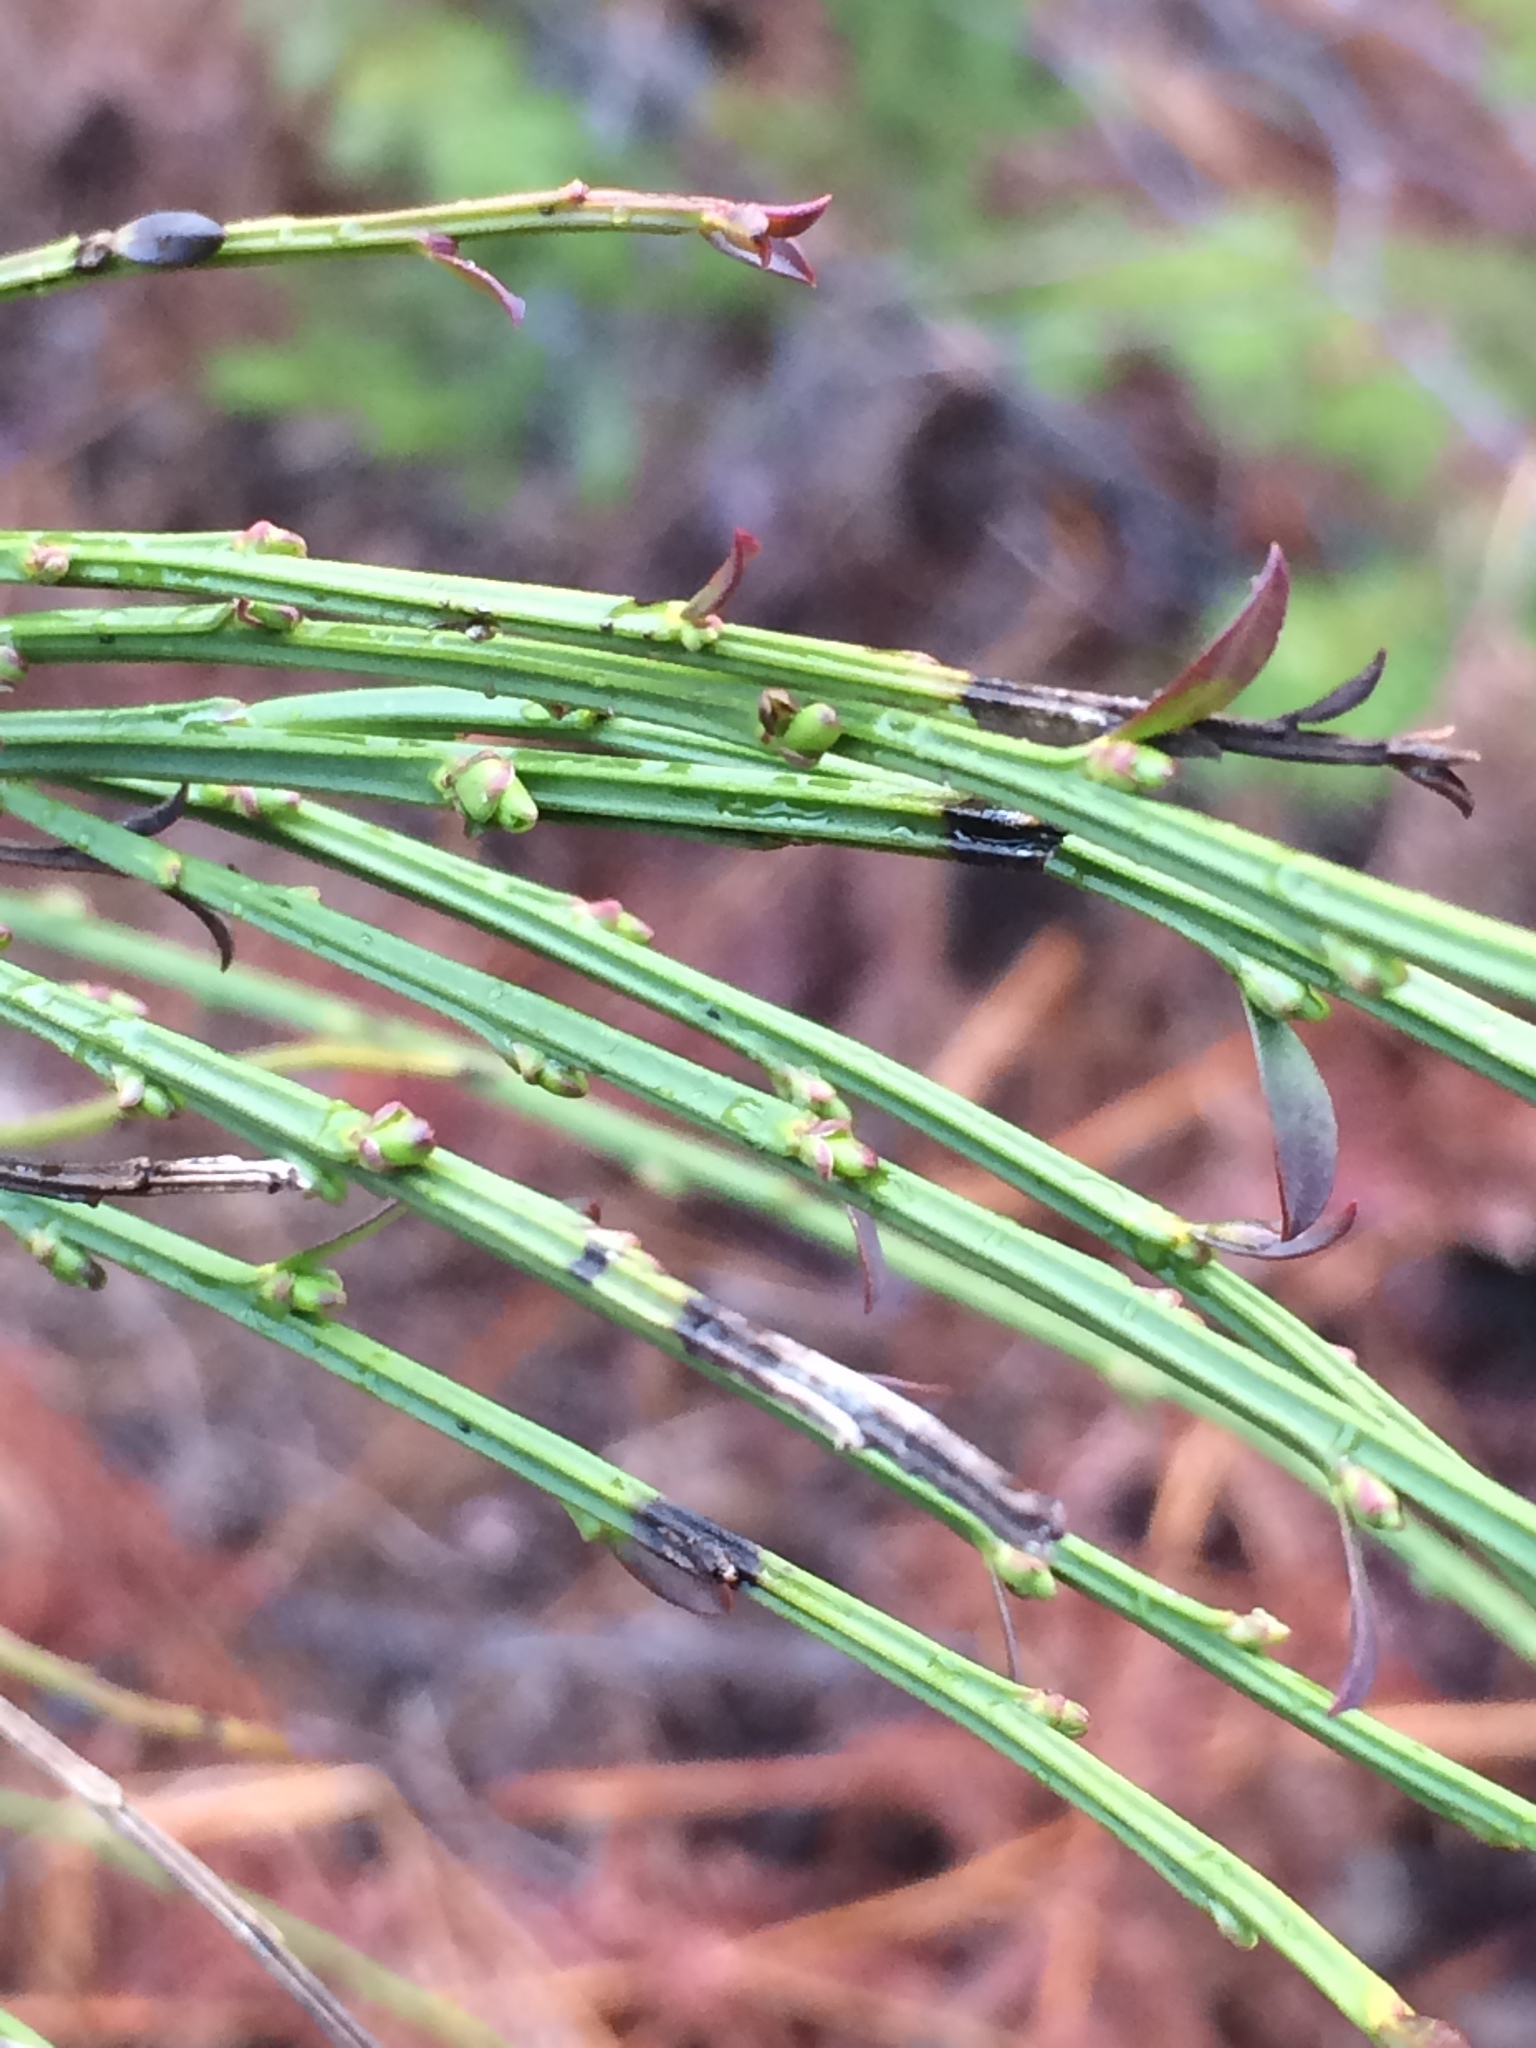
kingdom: Plantae
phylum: Tracheophyta
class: Magnoliopsida
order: Fabales
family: Fabaceae
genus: Cytisus
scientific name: Cytisus scoparius
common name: Scotch broom
